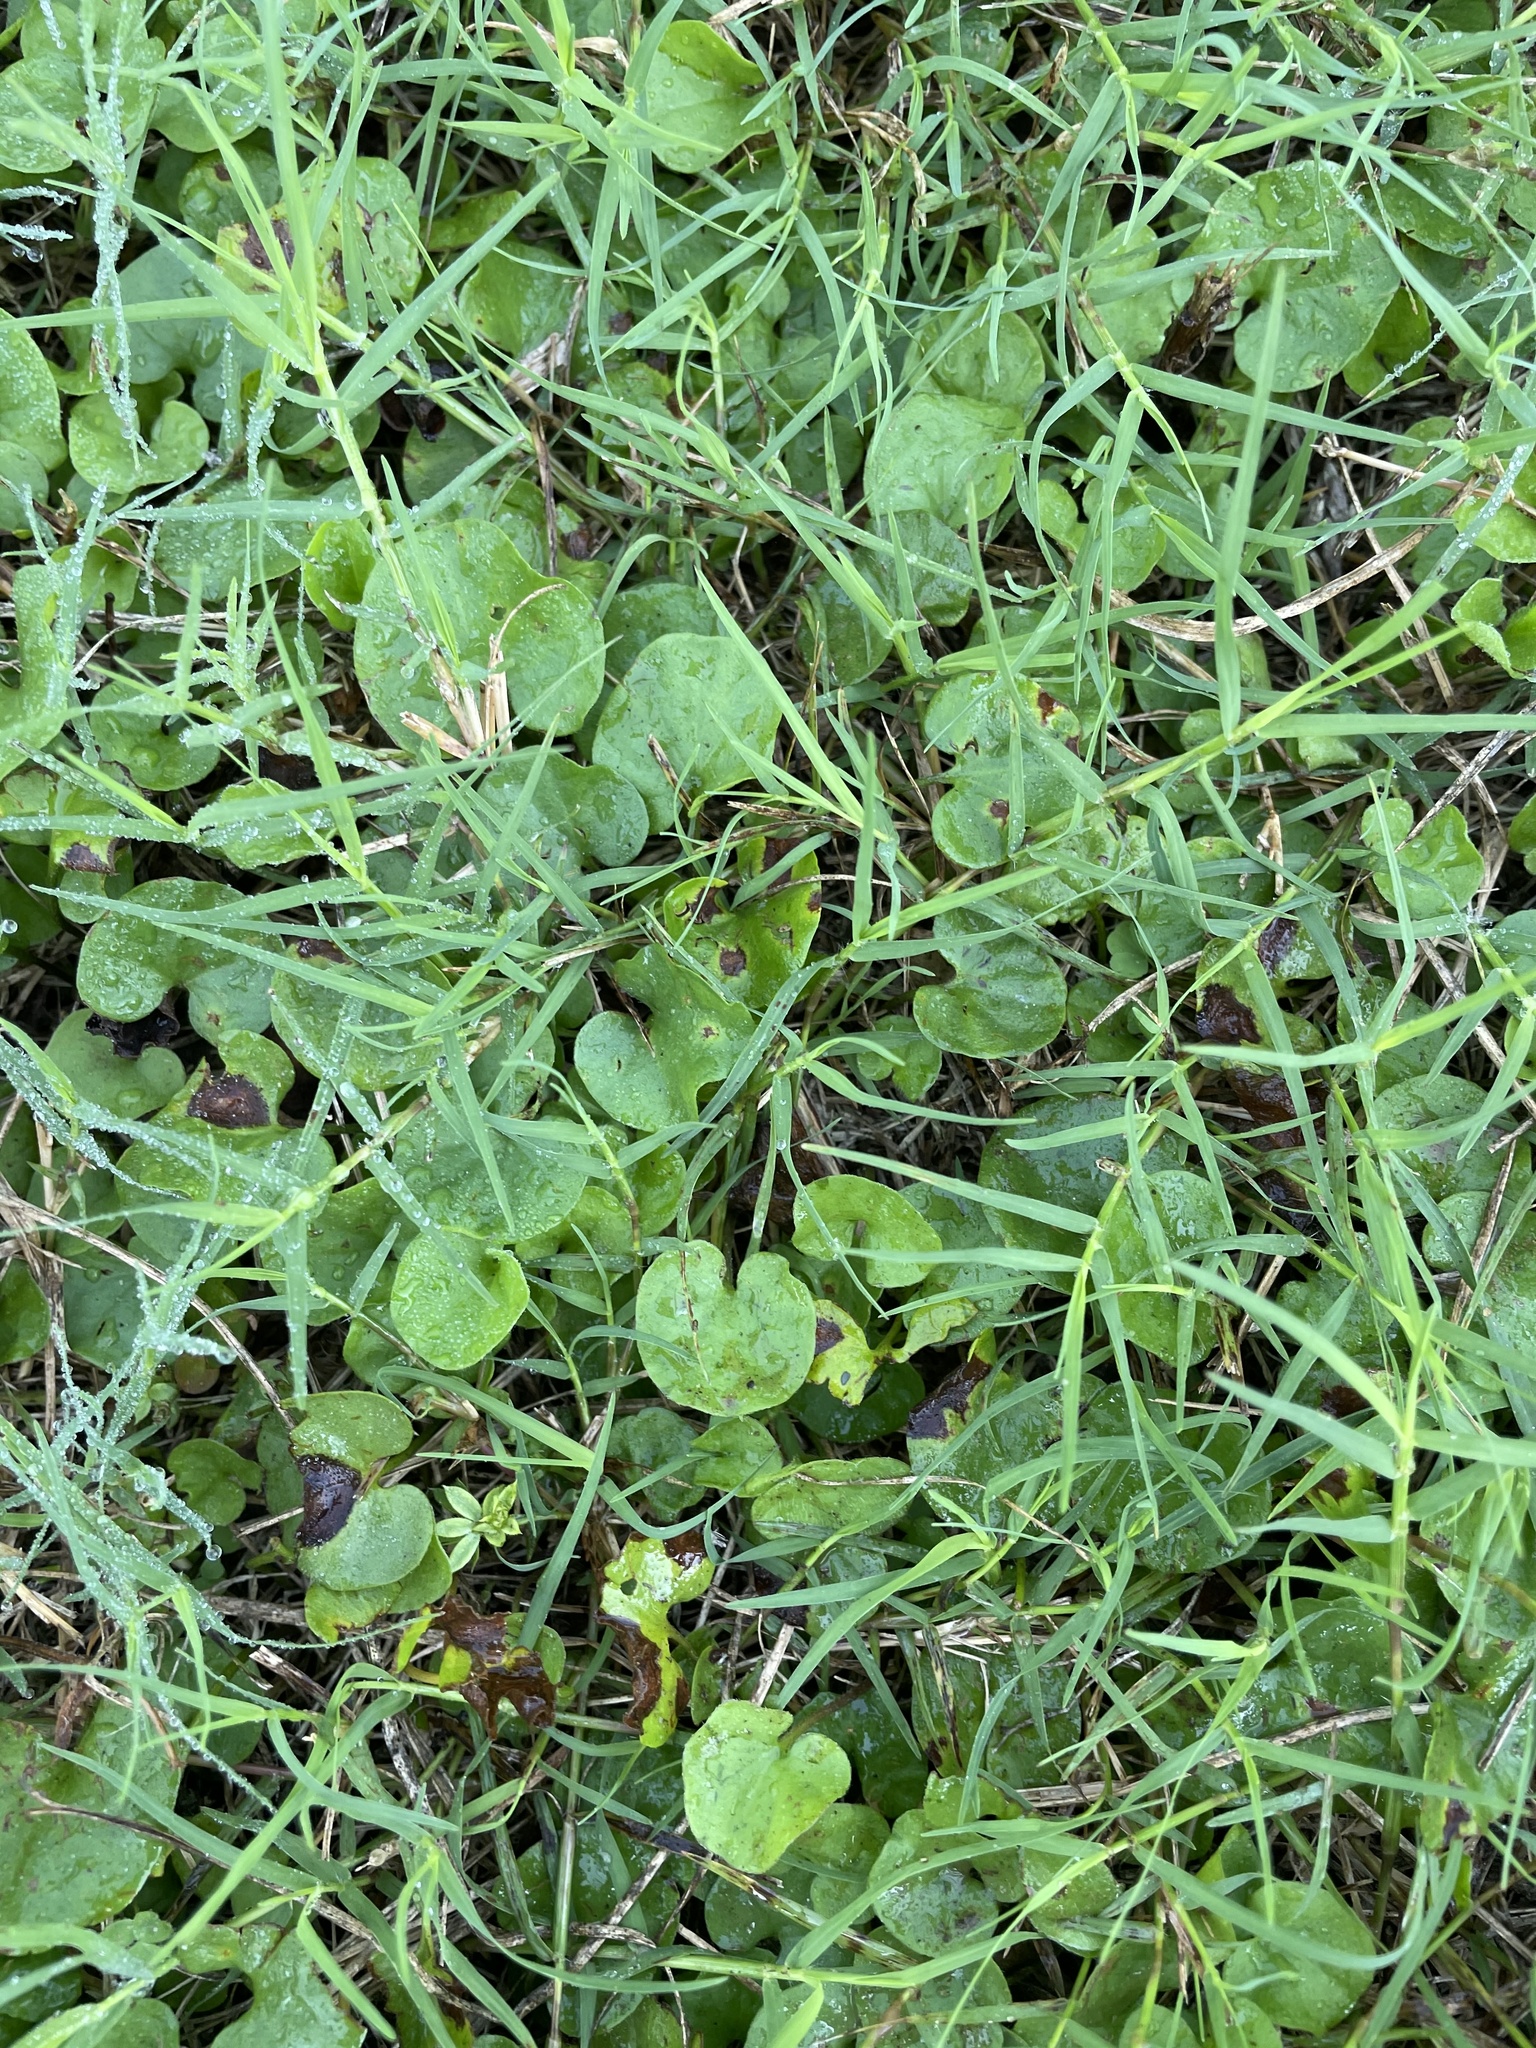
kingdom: Plantae
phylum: Tracheophyta
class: Magnoliopsida
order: Solanales
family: Convolvulaceae
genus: Dichondra
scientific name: Dichondra carolinensis
